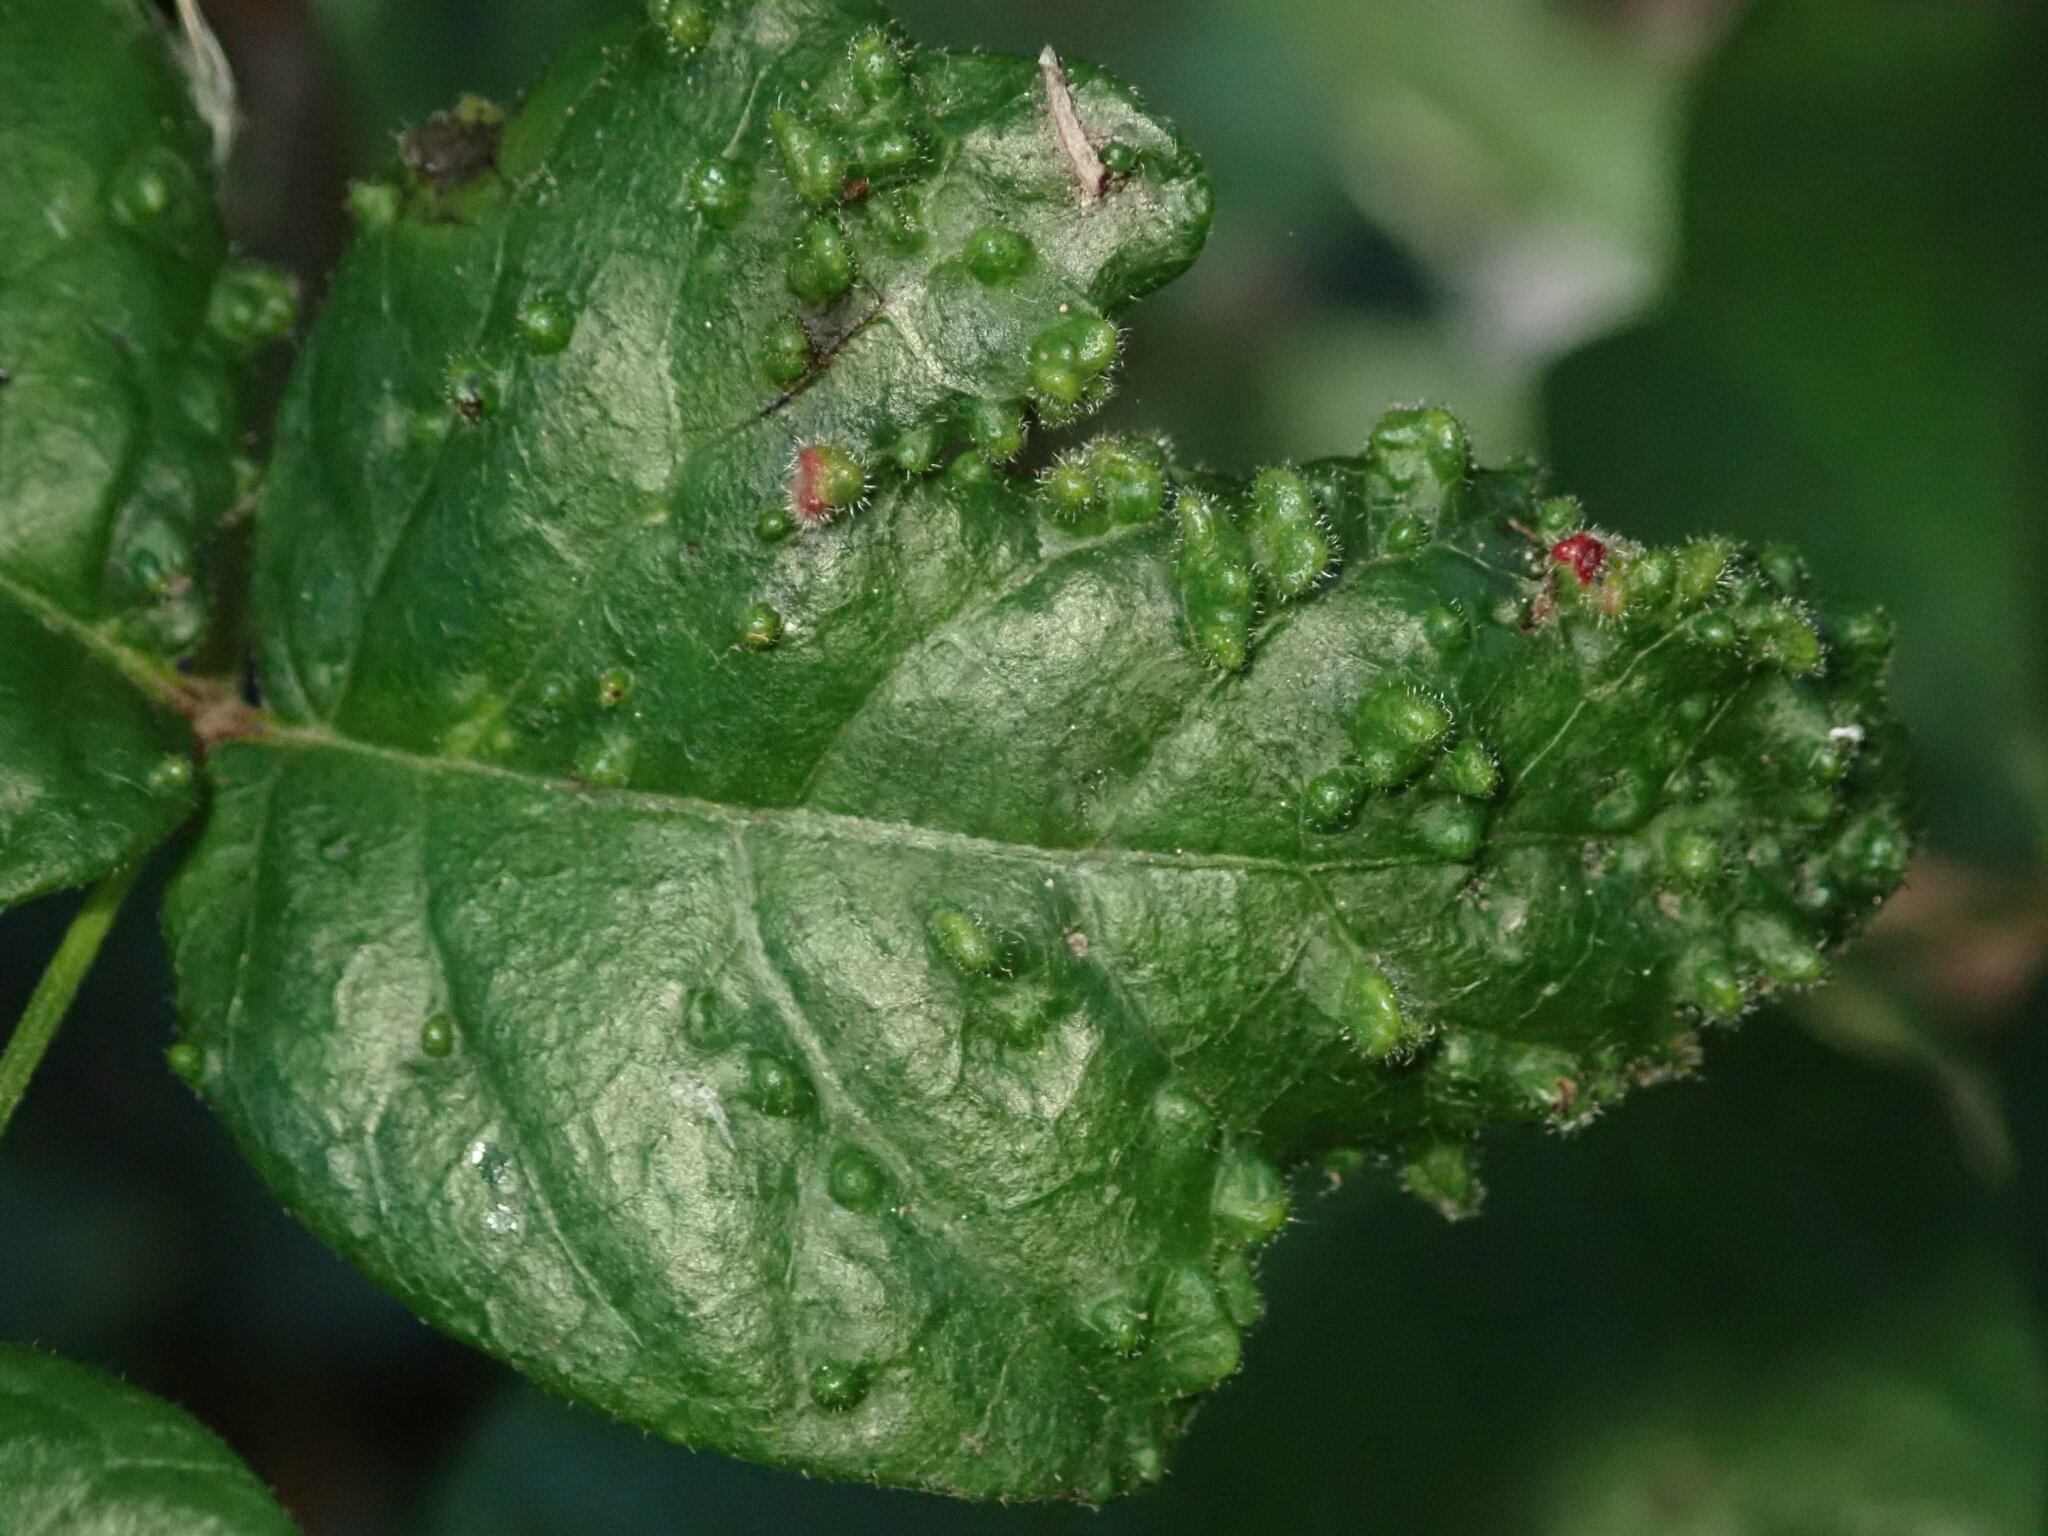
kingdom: Animalia
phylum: Arthropoda
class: Arachnida
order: Trombidiformes
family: Eriophyidae
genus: Aculops
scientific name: Aculops
